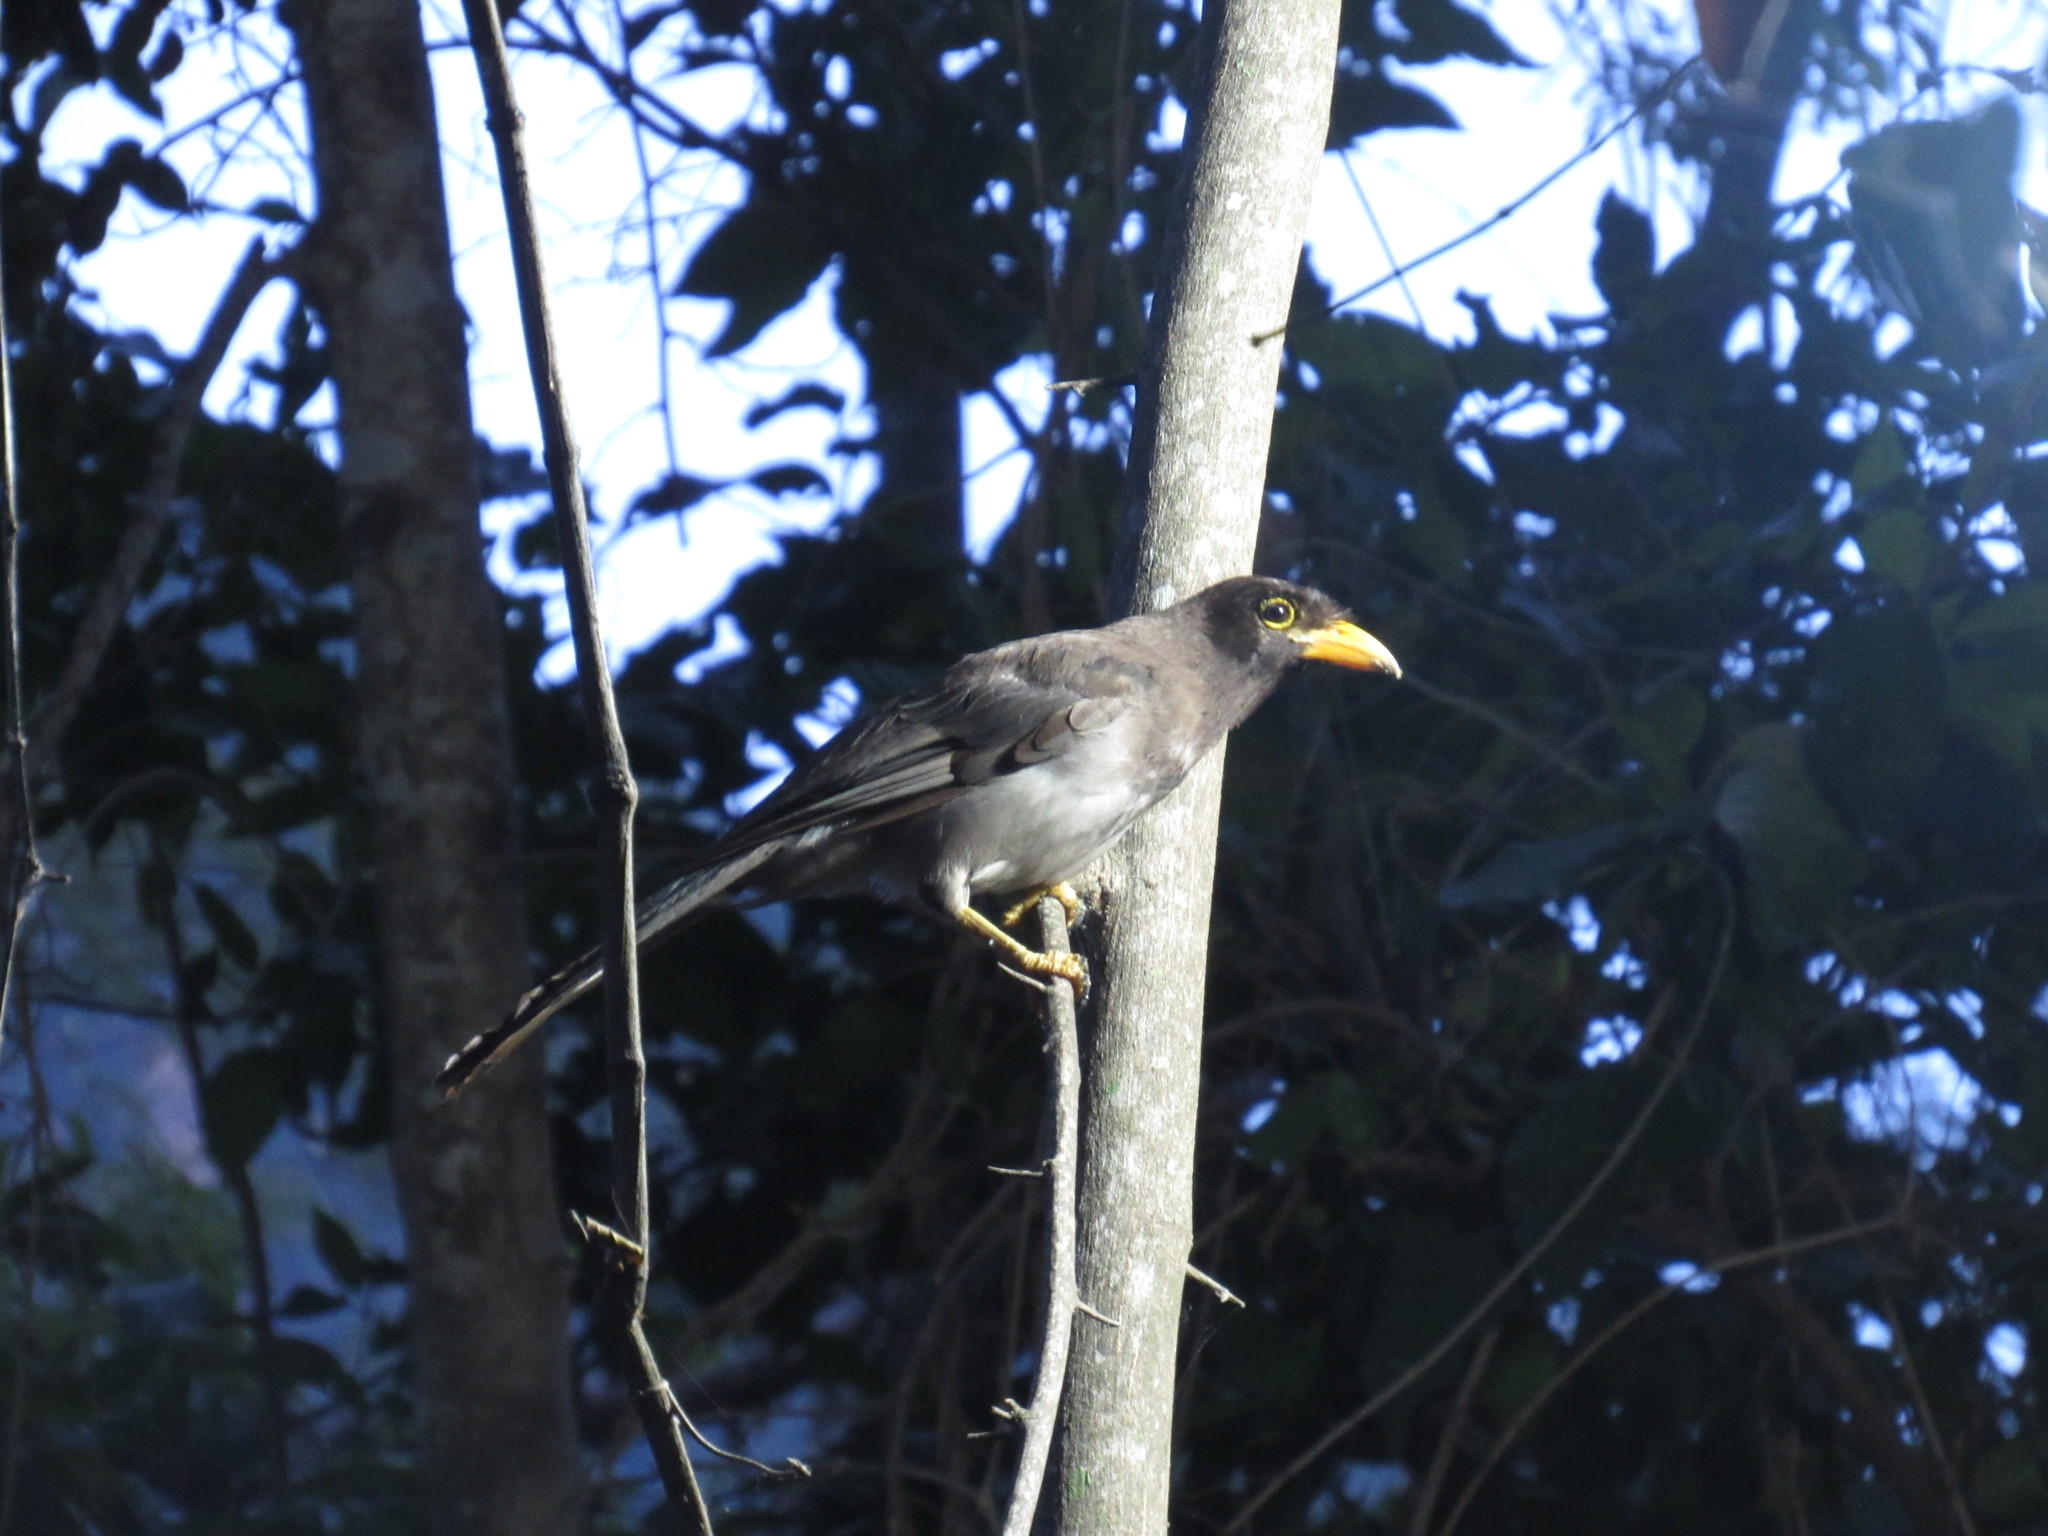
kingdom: Animalia
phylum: Chordata
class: Aves
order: Passeriformes
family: Corvidae
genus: Psilorhinus
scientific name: Psilorhinus morio
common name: Brown jay
